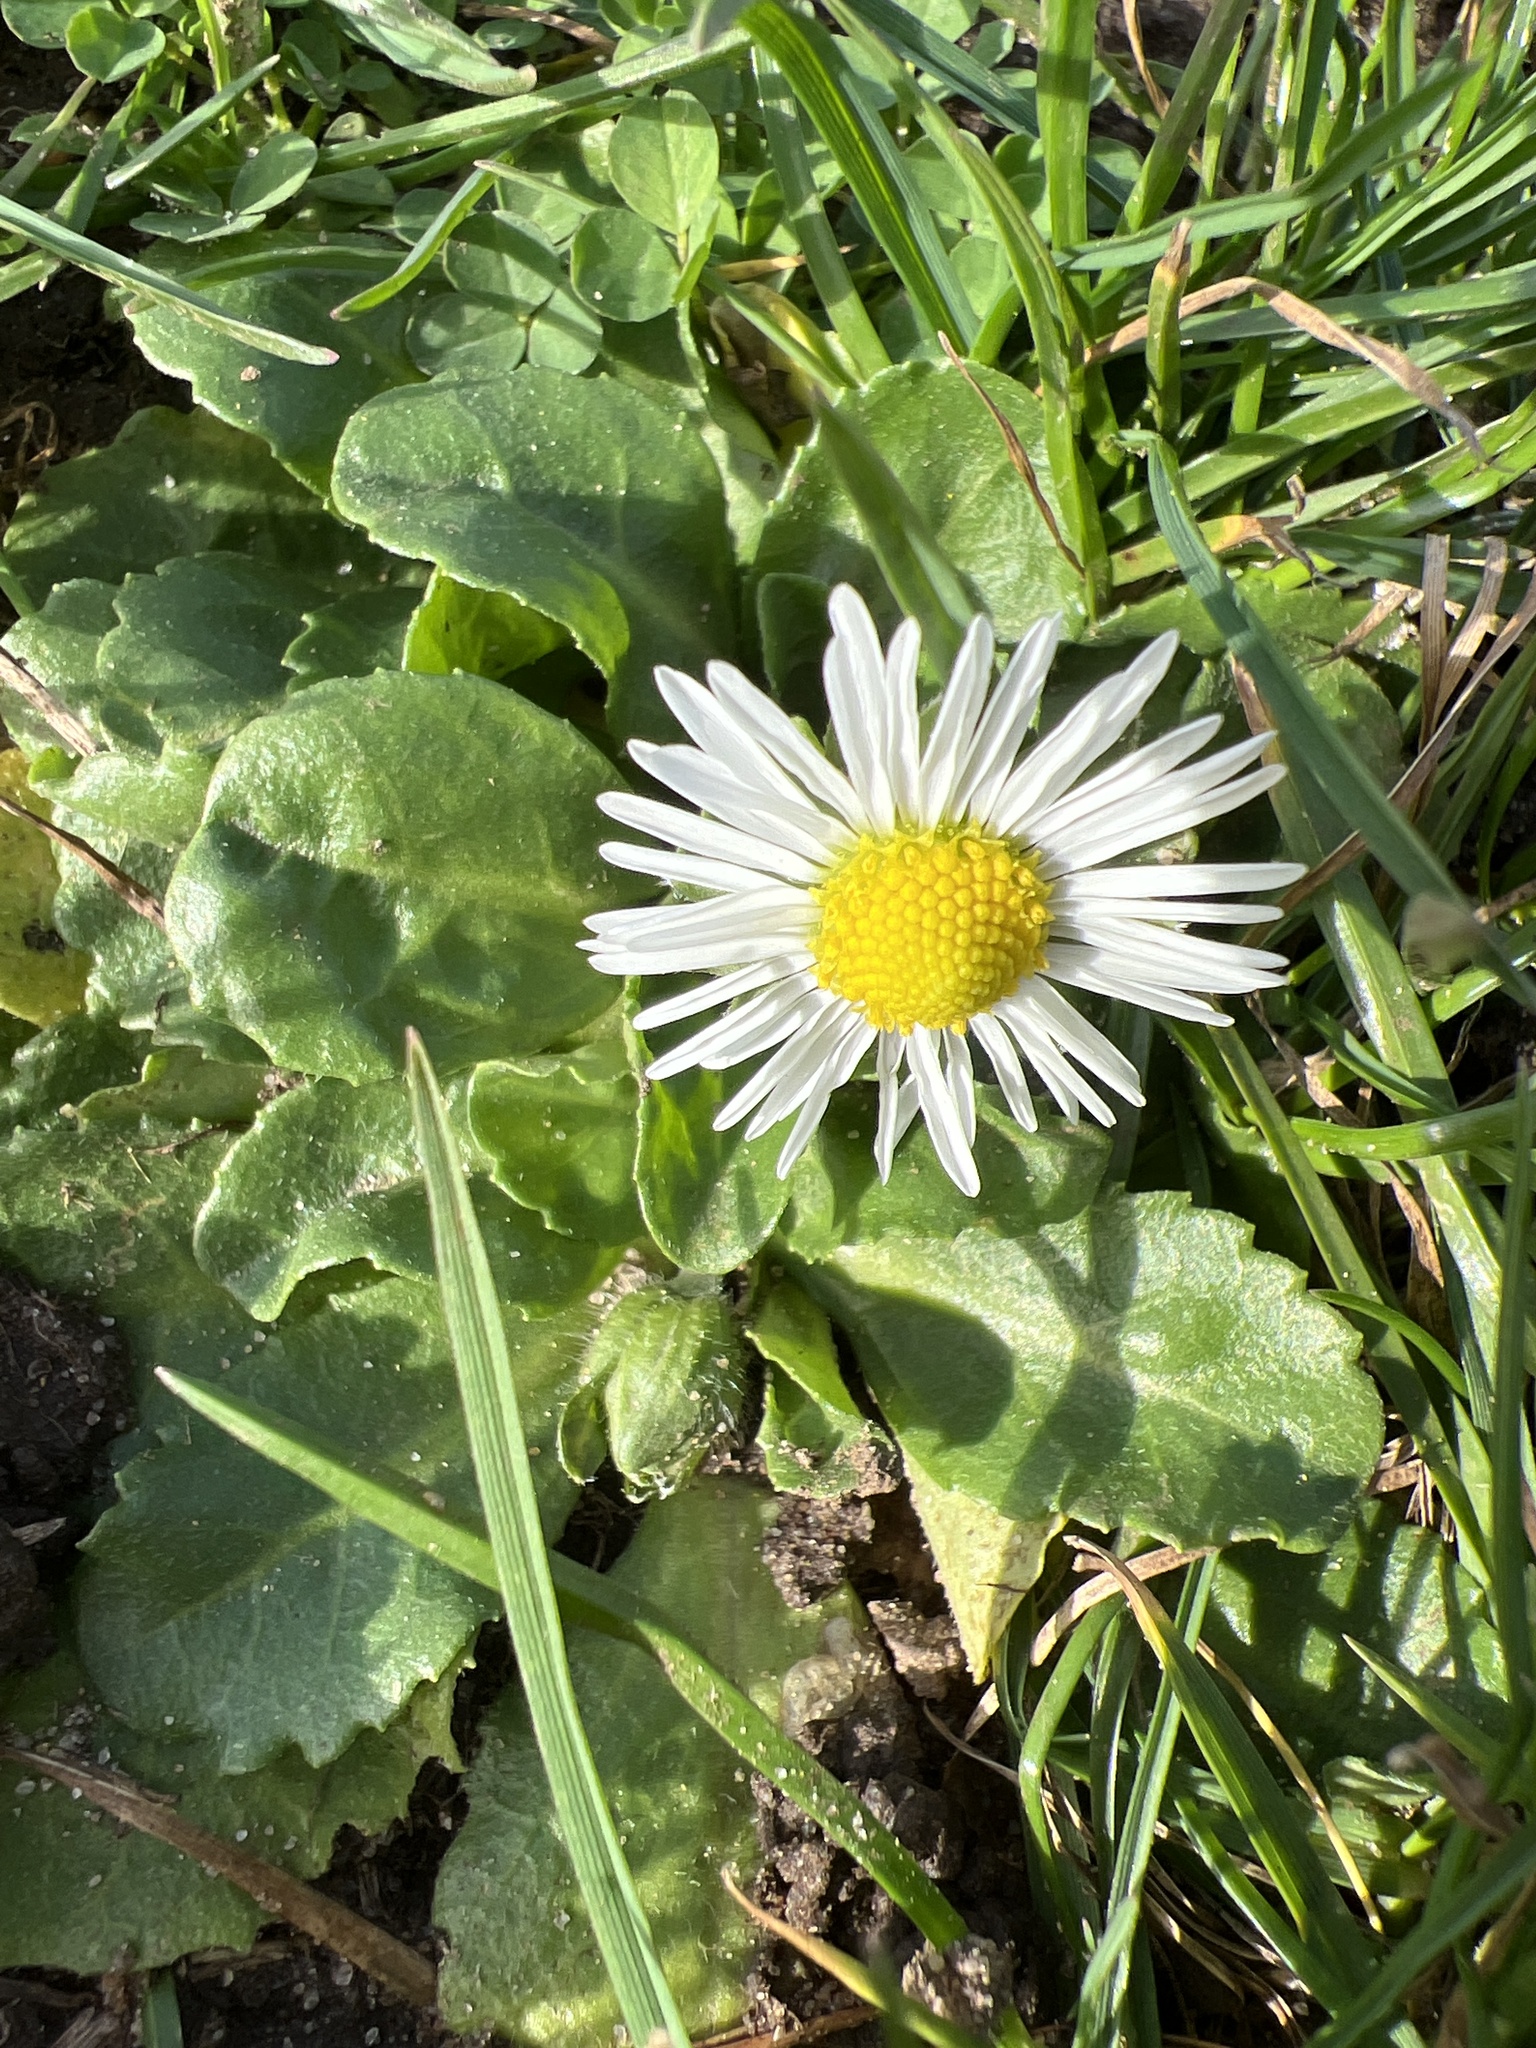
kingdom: Plantae
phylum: Tracheophyta
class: Magnoliopsida
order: Asterales
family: Asteraceae
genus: Bellis
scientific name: Bellis perennis
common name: Lawndaisy
